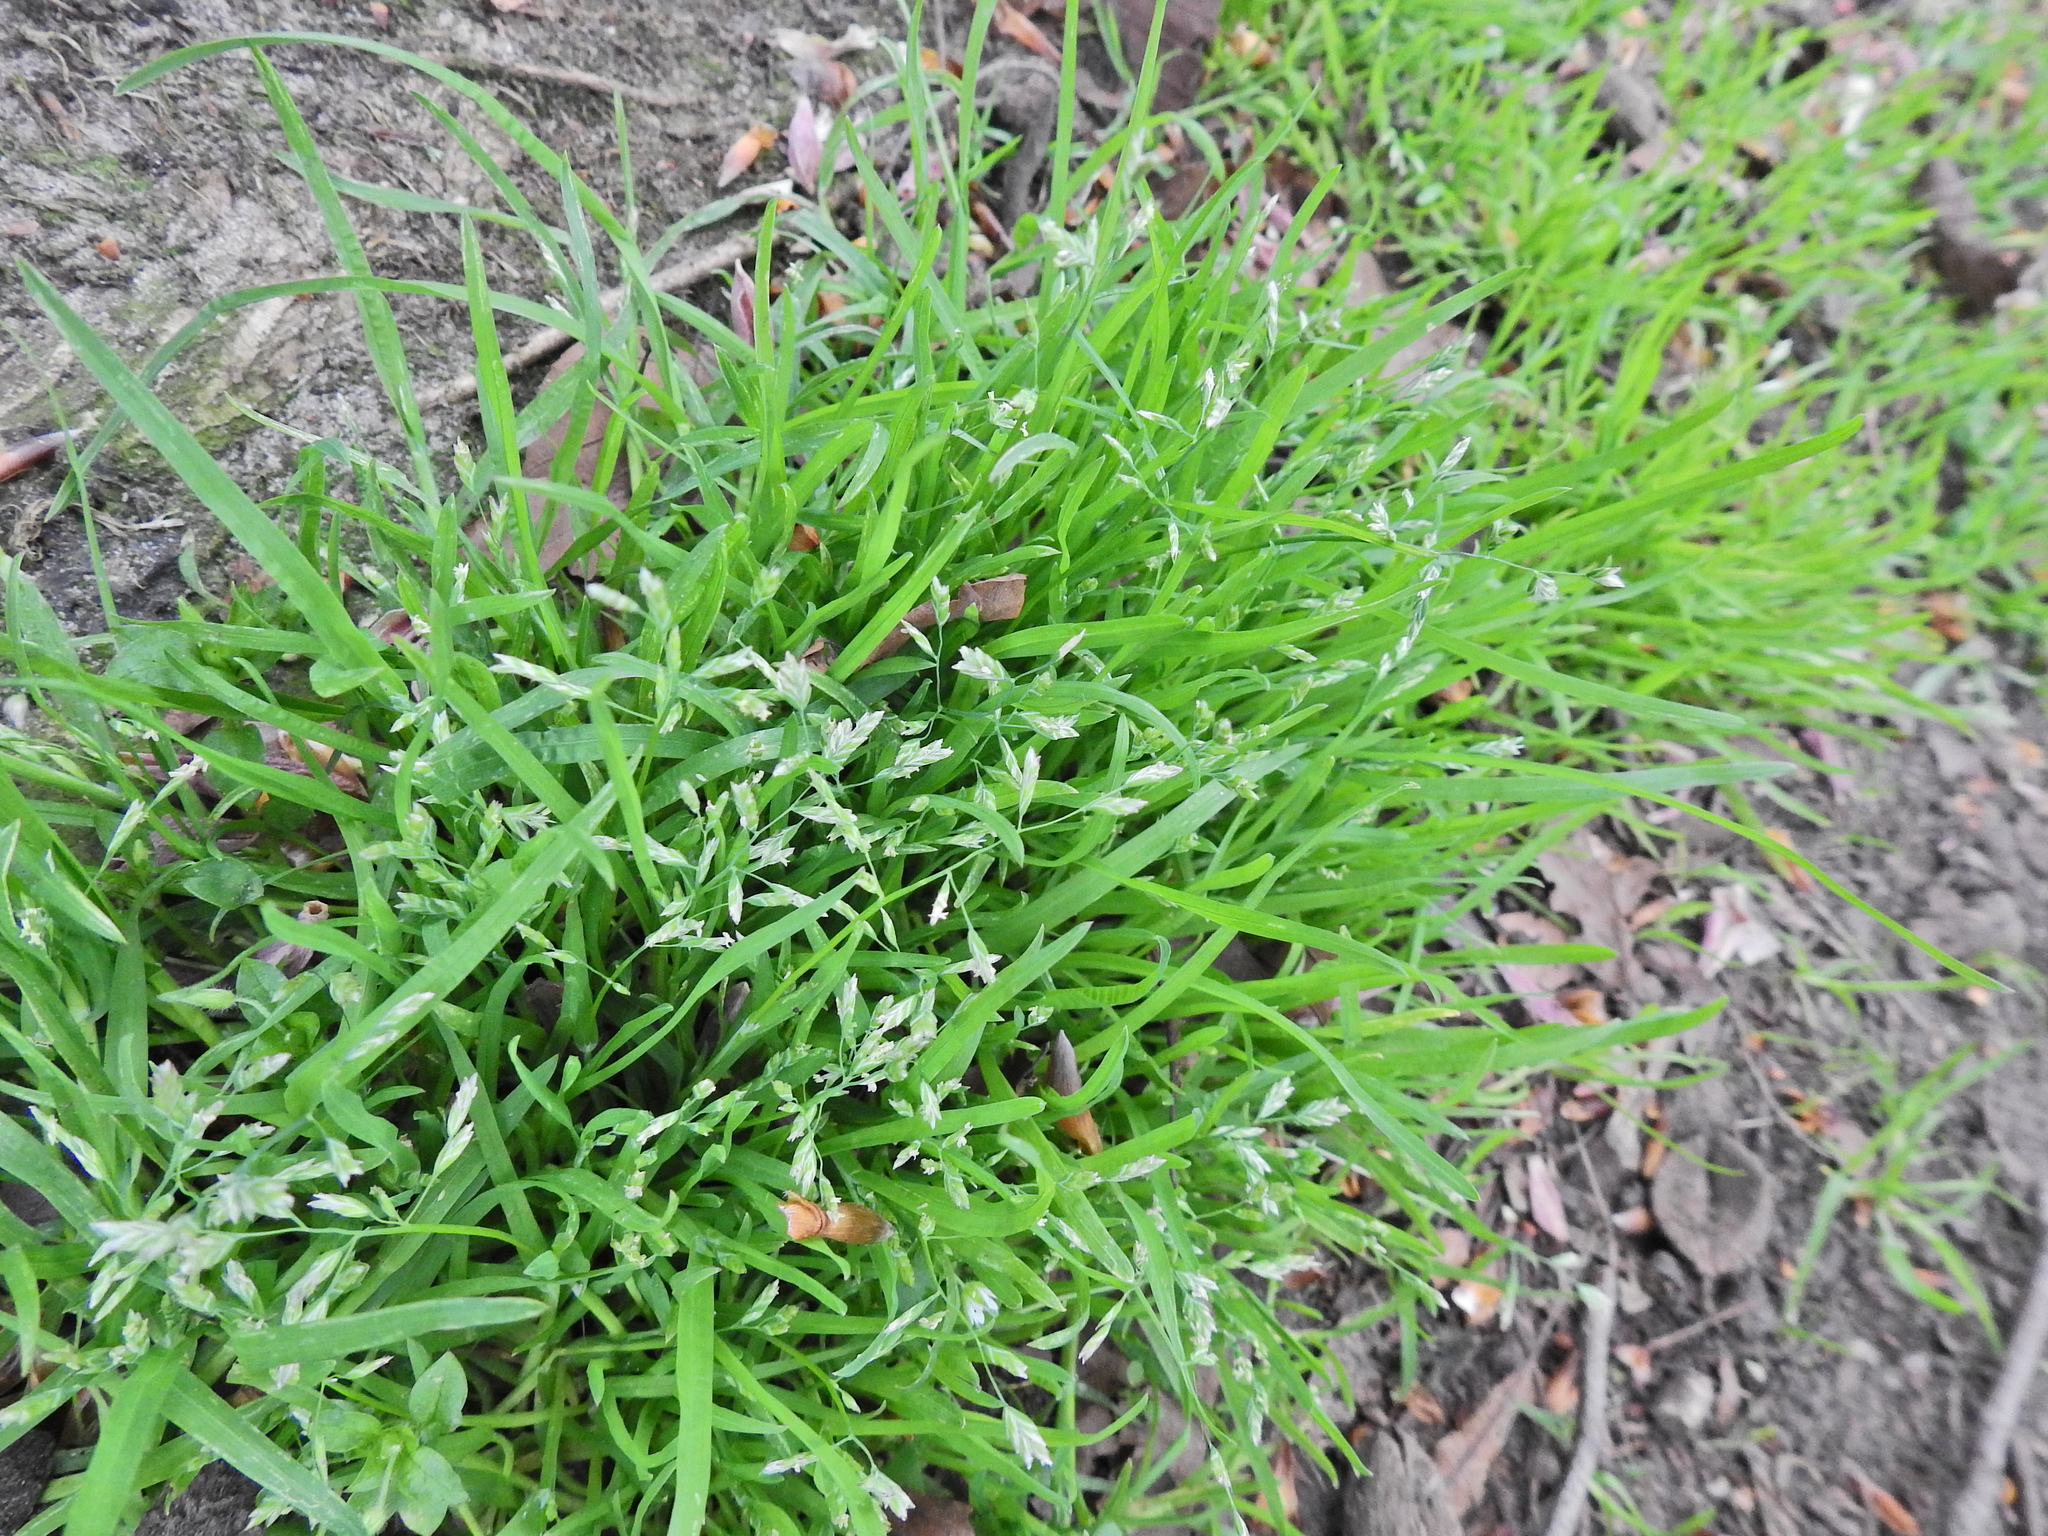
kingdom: Plantae
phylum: Tracheophyta
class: Liliopsida
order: Poales
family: Poaceae
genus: Poa
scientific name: Poa annua
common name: Annual bluegrass
